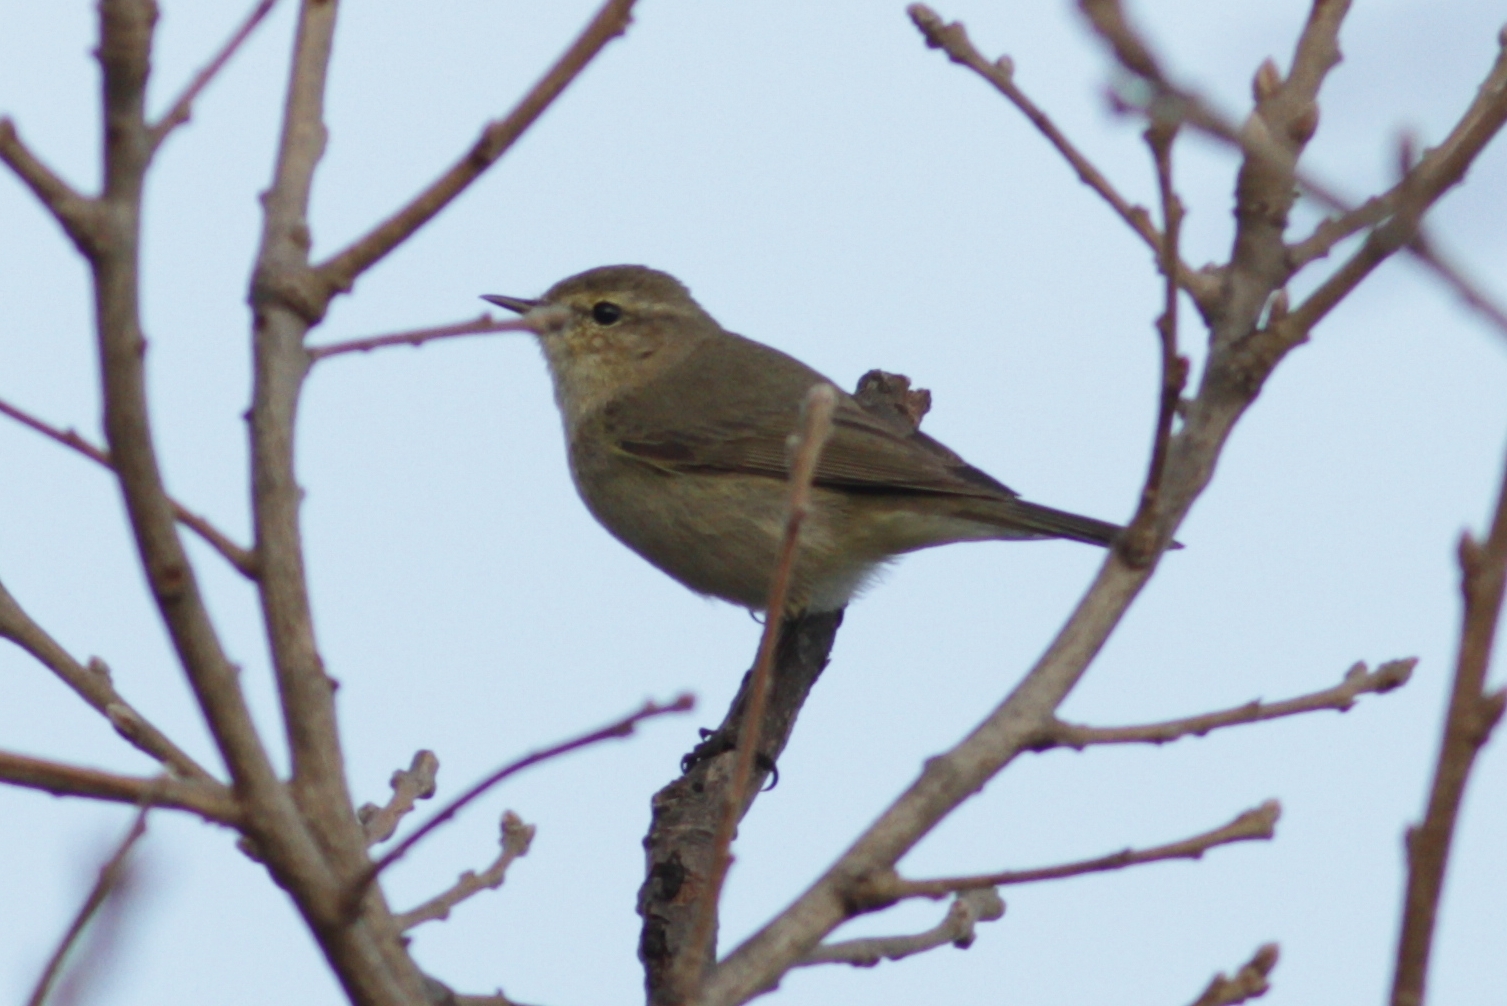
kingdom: Animalia
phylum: Chordata
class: Aves
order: Passeriformes
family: Phylloscopidae
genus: Phylloscopus
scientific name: Phylloscopus collybita
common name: Common chiffchaff
